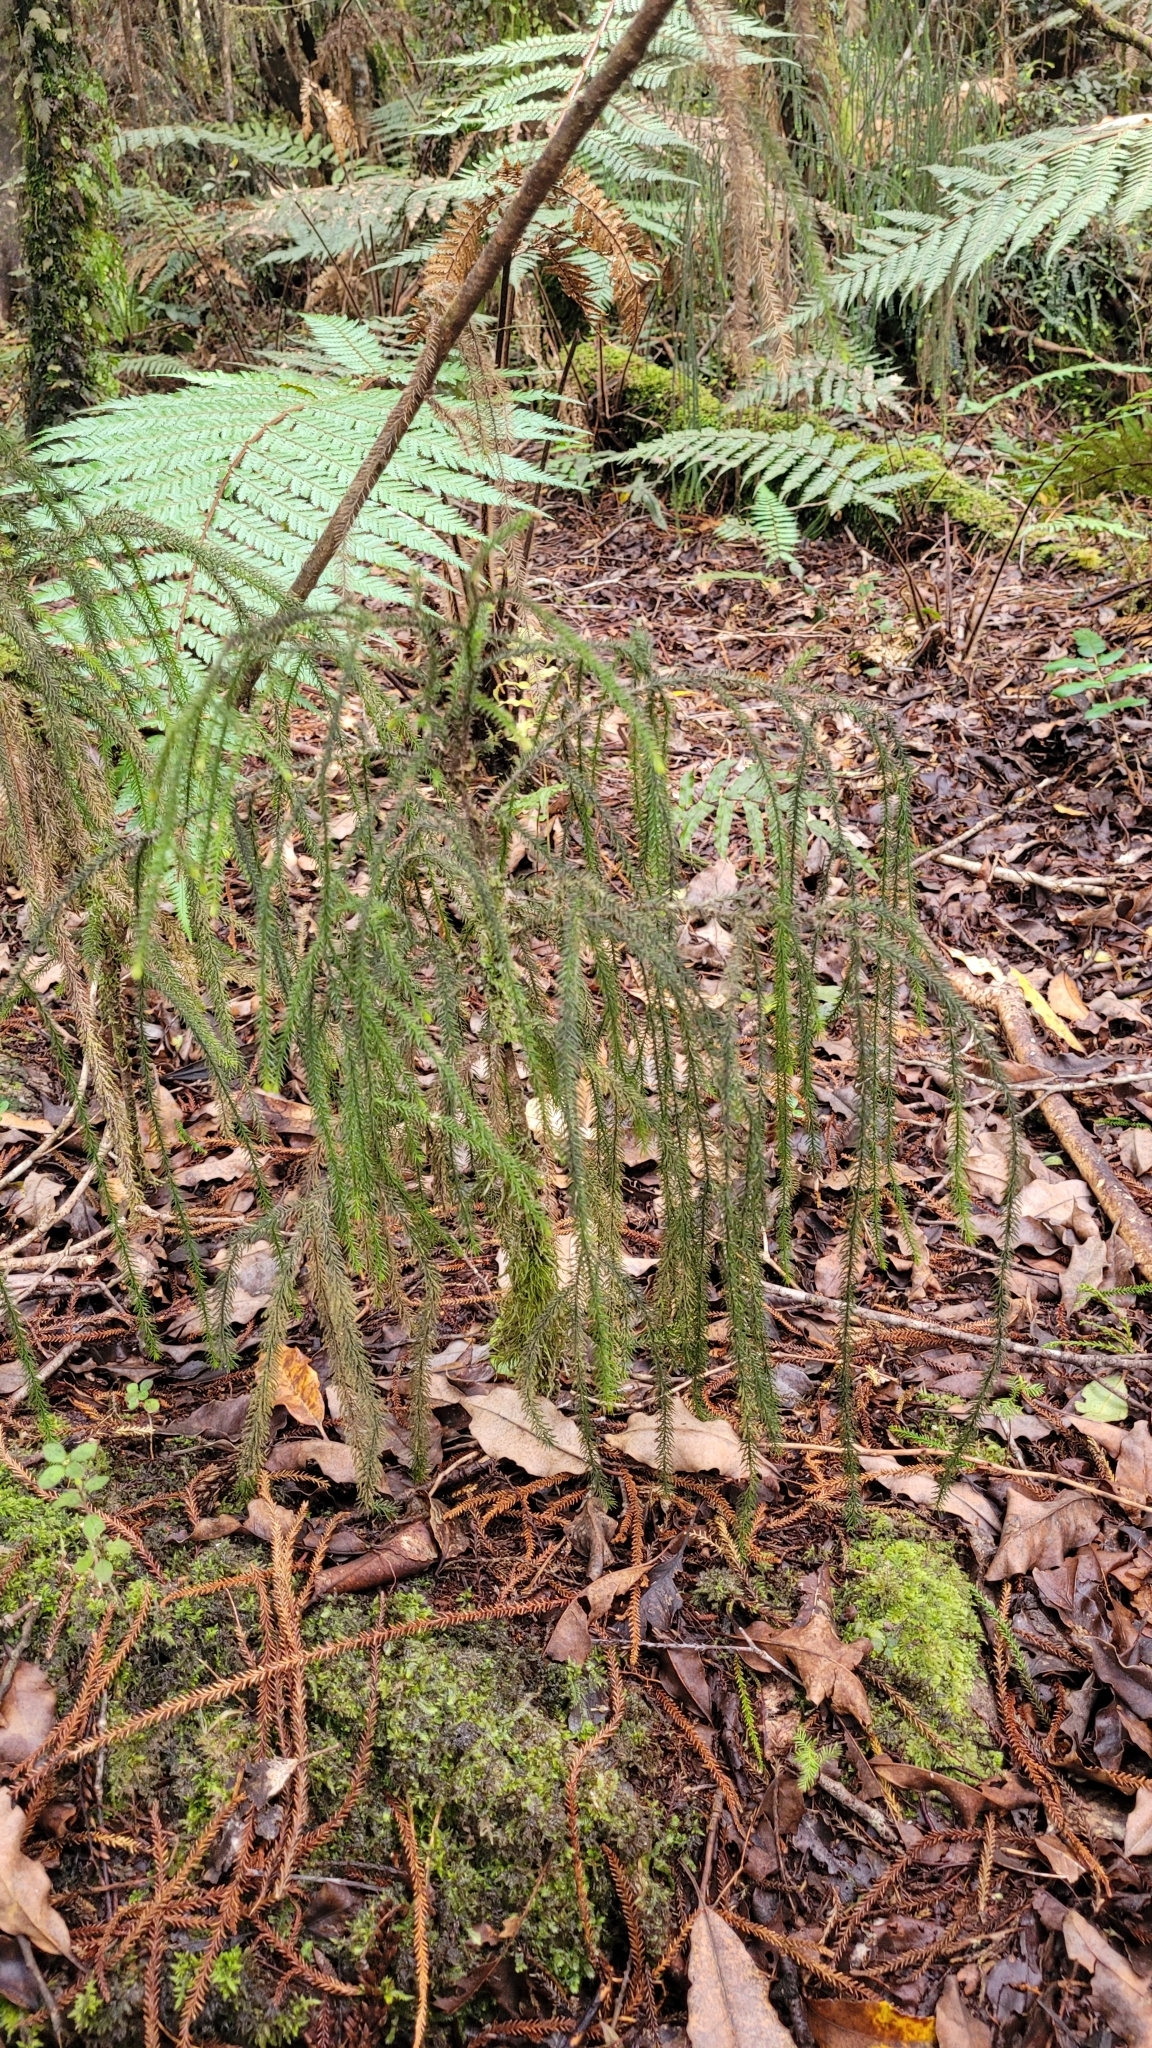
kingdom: Plantae
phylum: Tracheophyta
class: Pinopsida
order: Pinales
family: Podocarpaceae
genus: Dacrydium
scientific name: Dacrydium cupressinum
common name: Red pine
